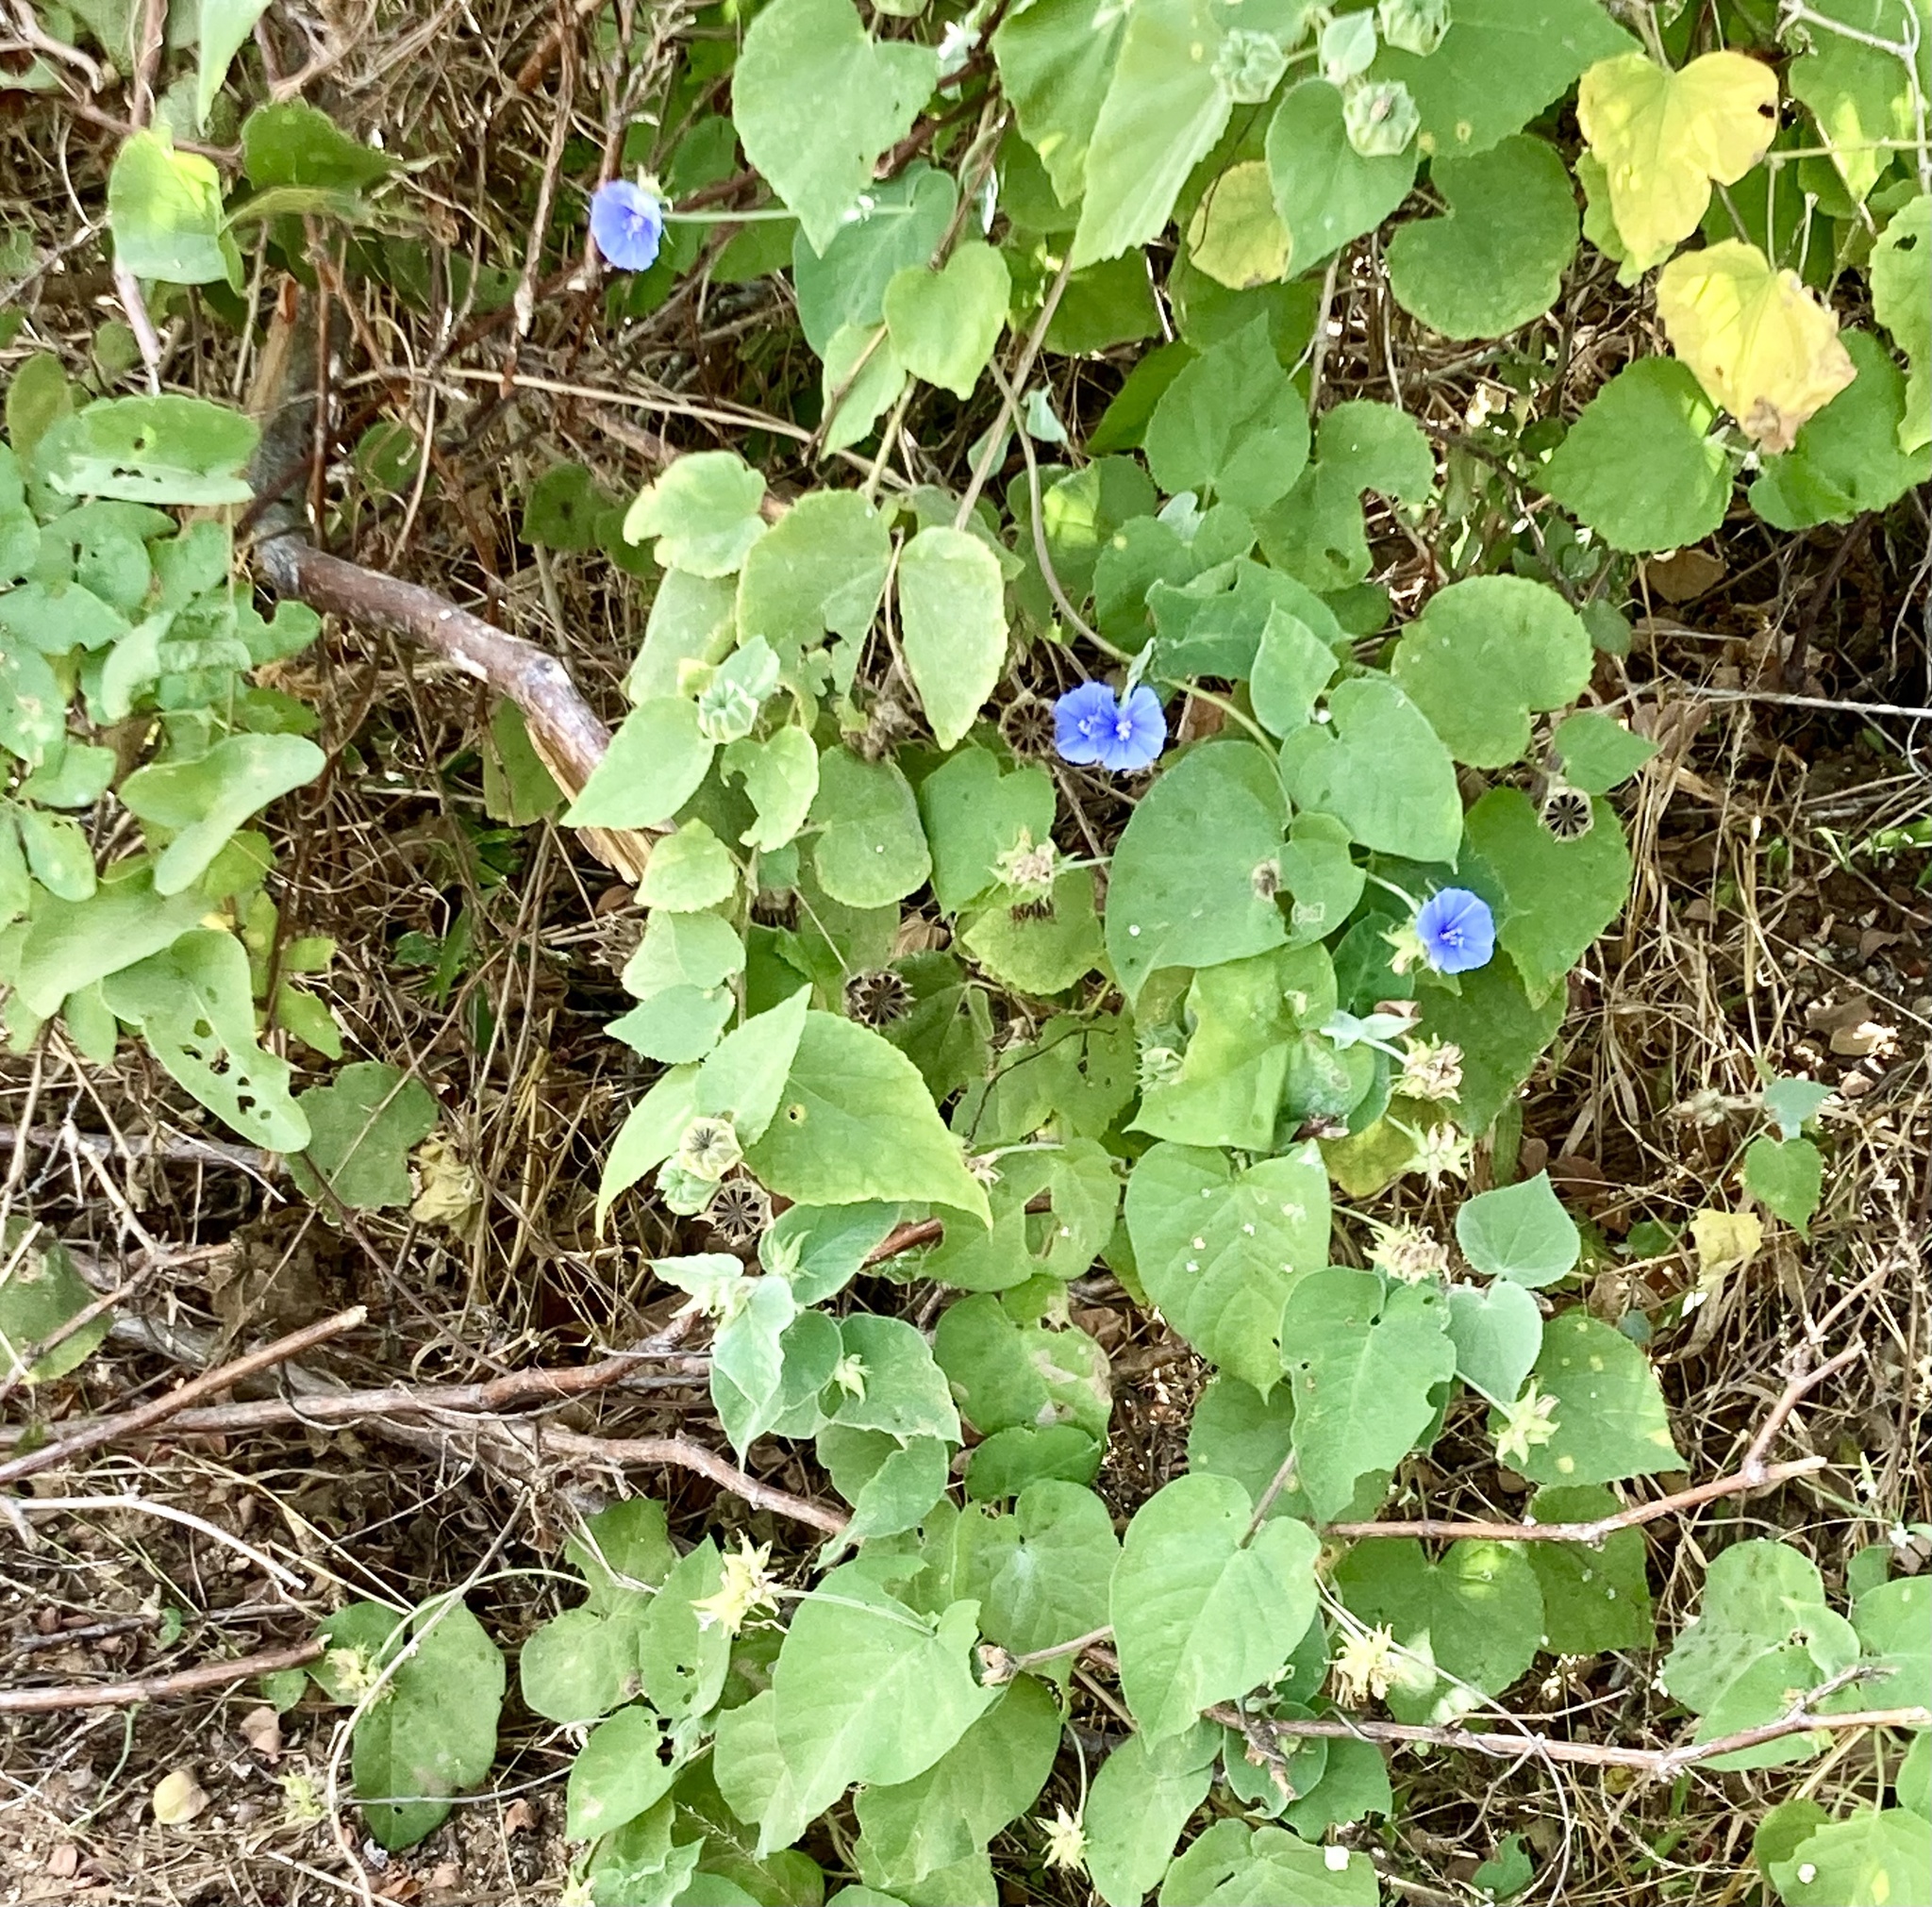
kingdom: Plantae
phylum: Tracheophyta
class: Magnoliopsida
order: Solanales
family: Convolvulaceae
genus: Jacquemontia
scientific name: Jacquemontia abutiloides
